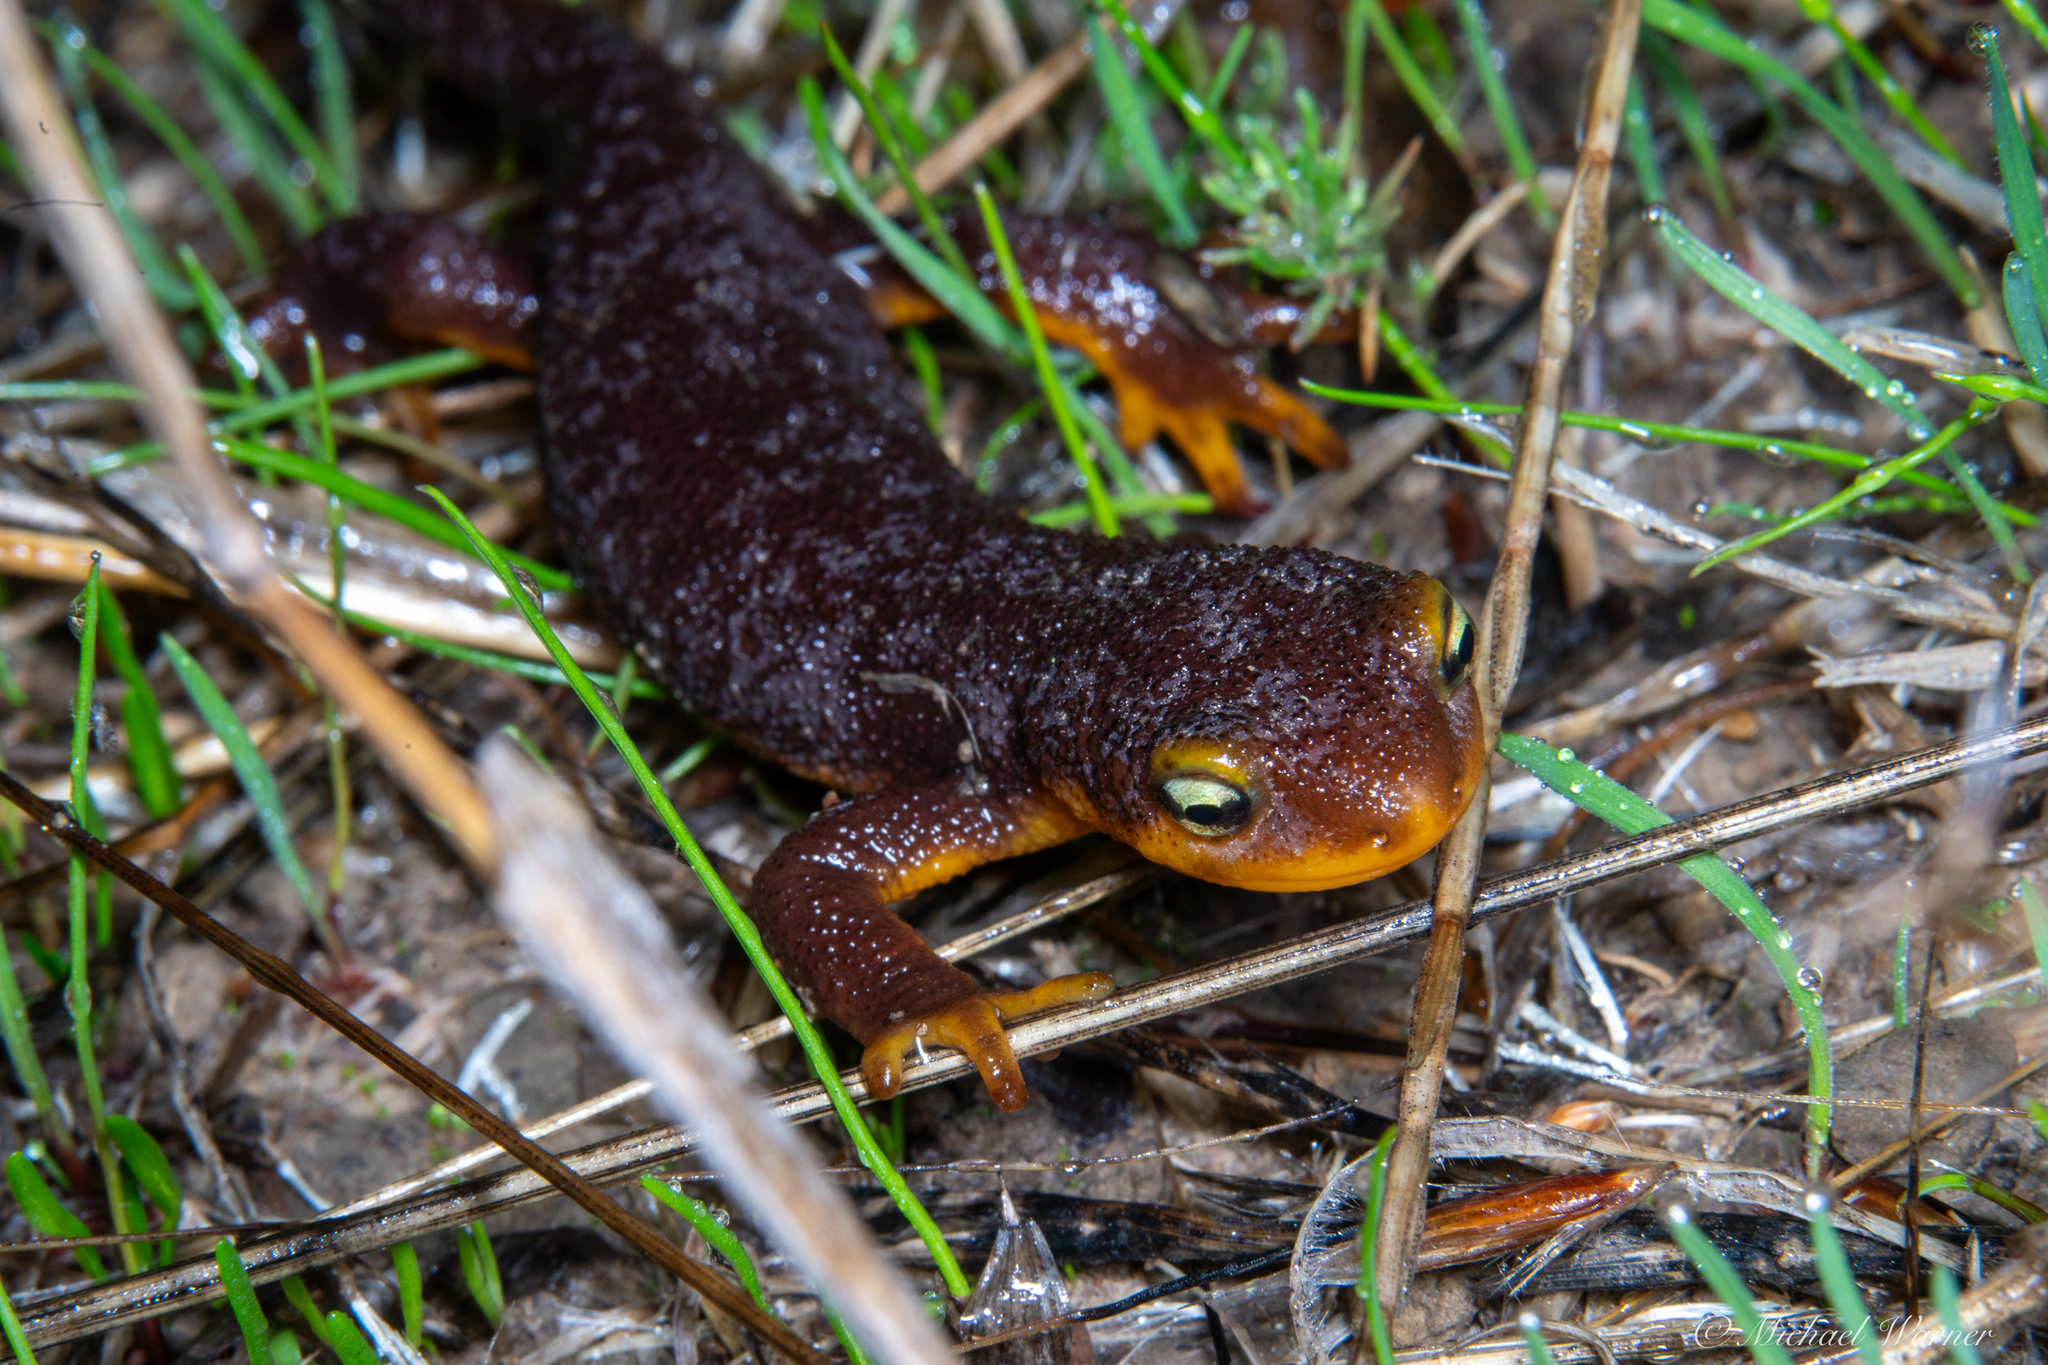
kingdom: Animalia
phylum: Chordata
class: Amphibia
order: Caudata
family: Salamandridae
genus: Taricha
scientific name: Taricha torosa
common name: California newt
